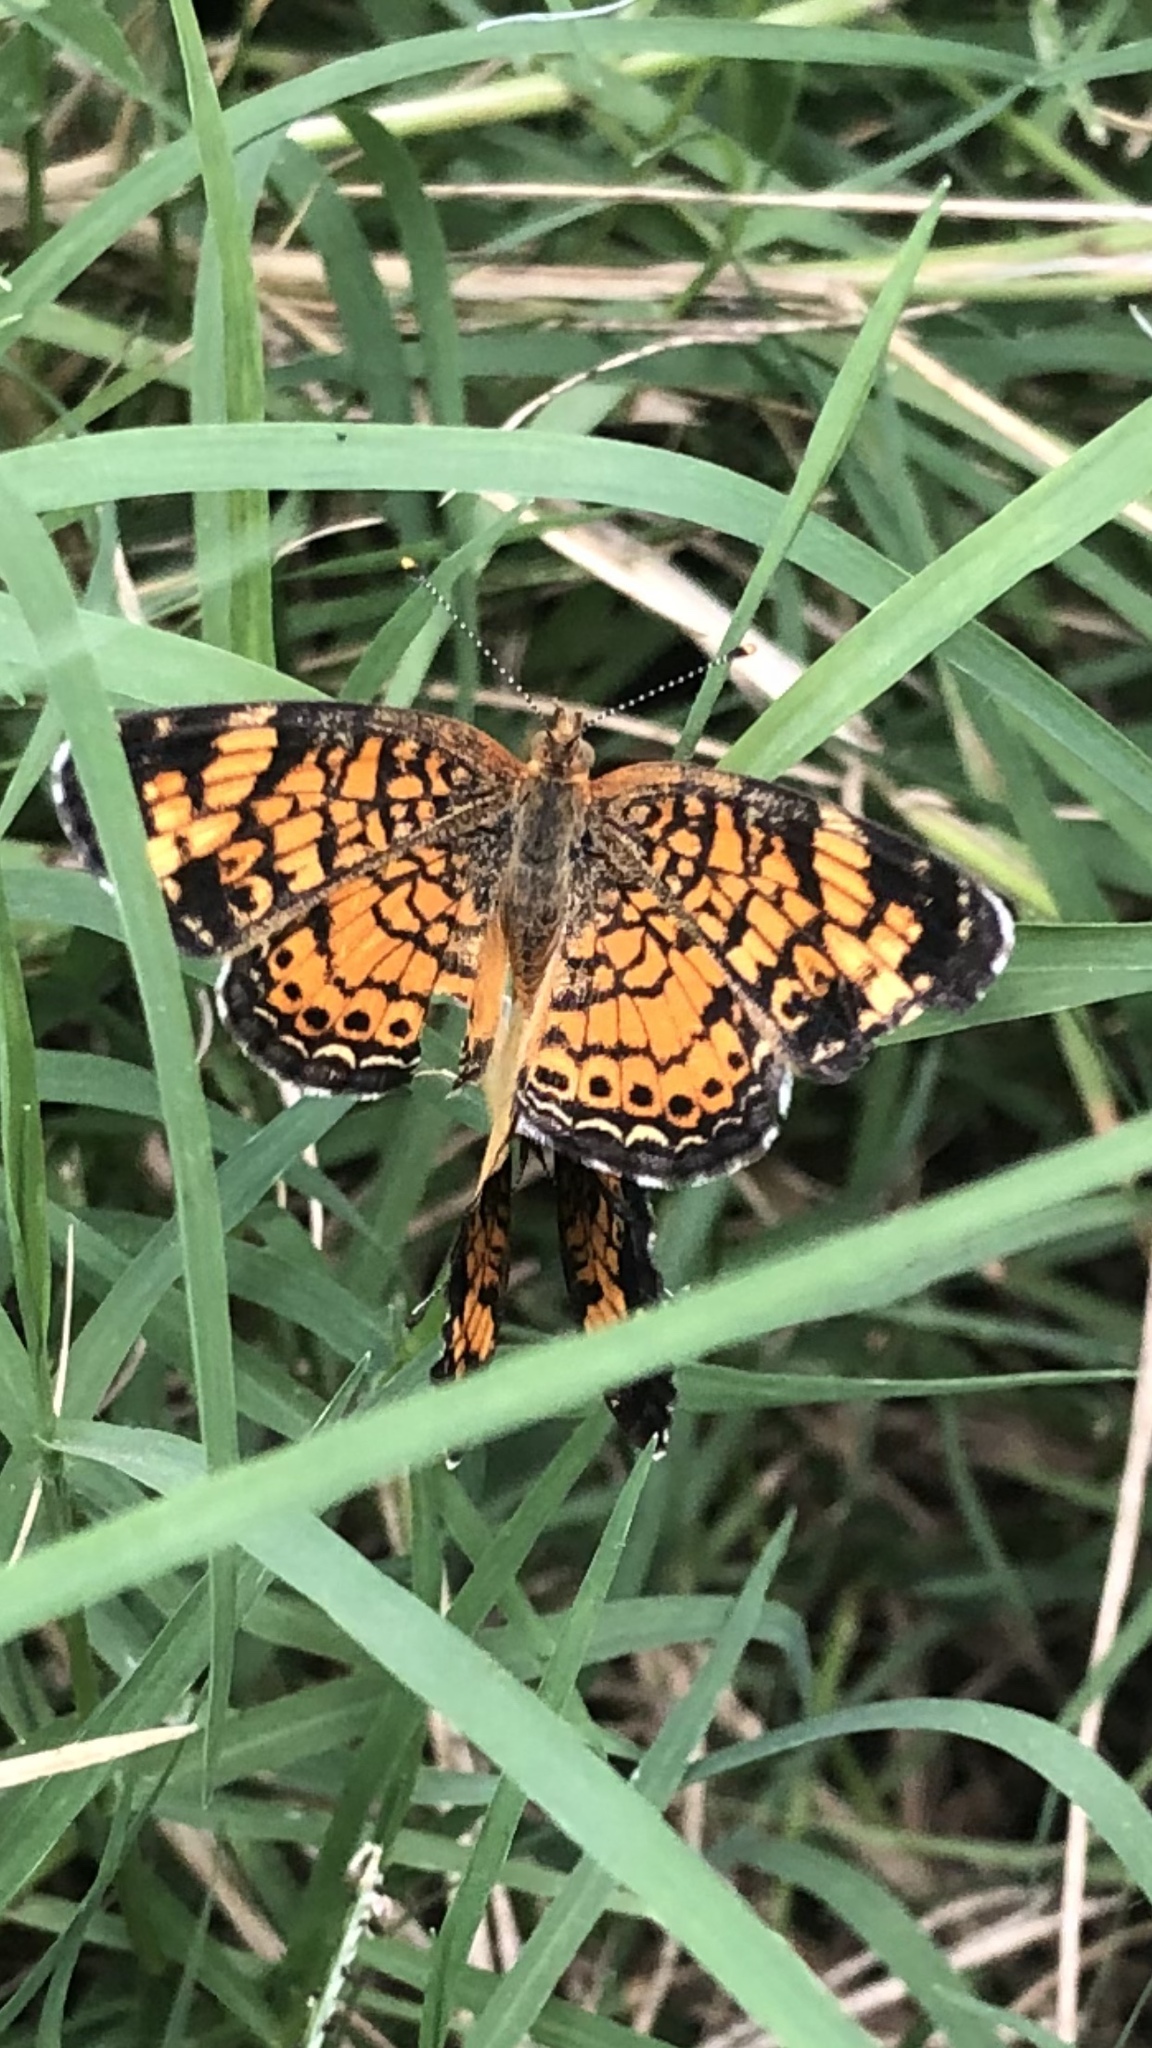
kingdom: Animalia
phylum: Arthropoda
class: Insecta
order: Lepidoptera
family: Nymphalidae
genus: Phyciodes
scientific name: Phyciodes tharos
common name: Pearl crescent
